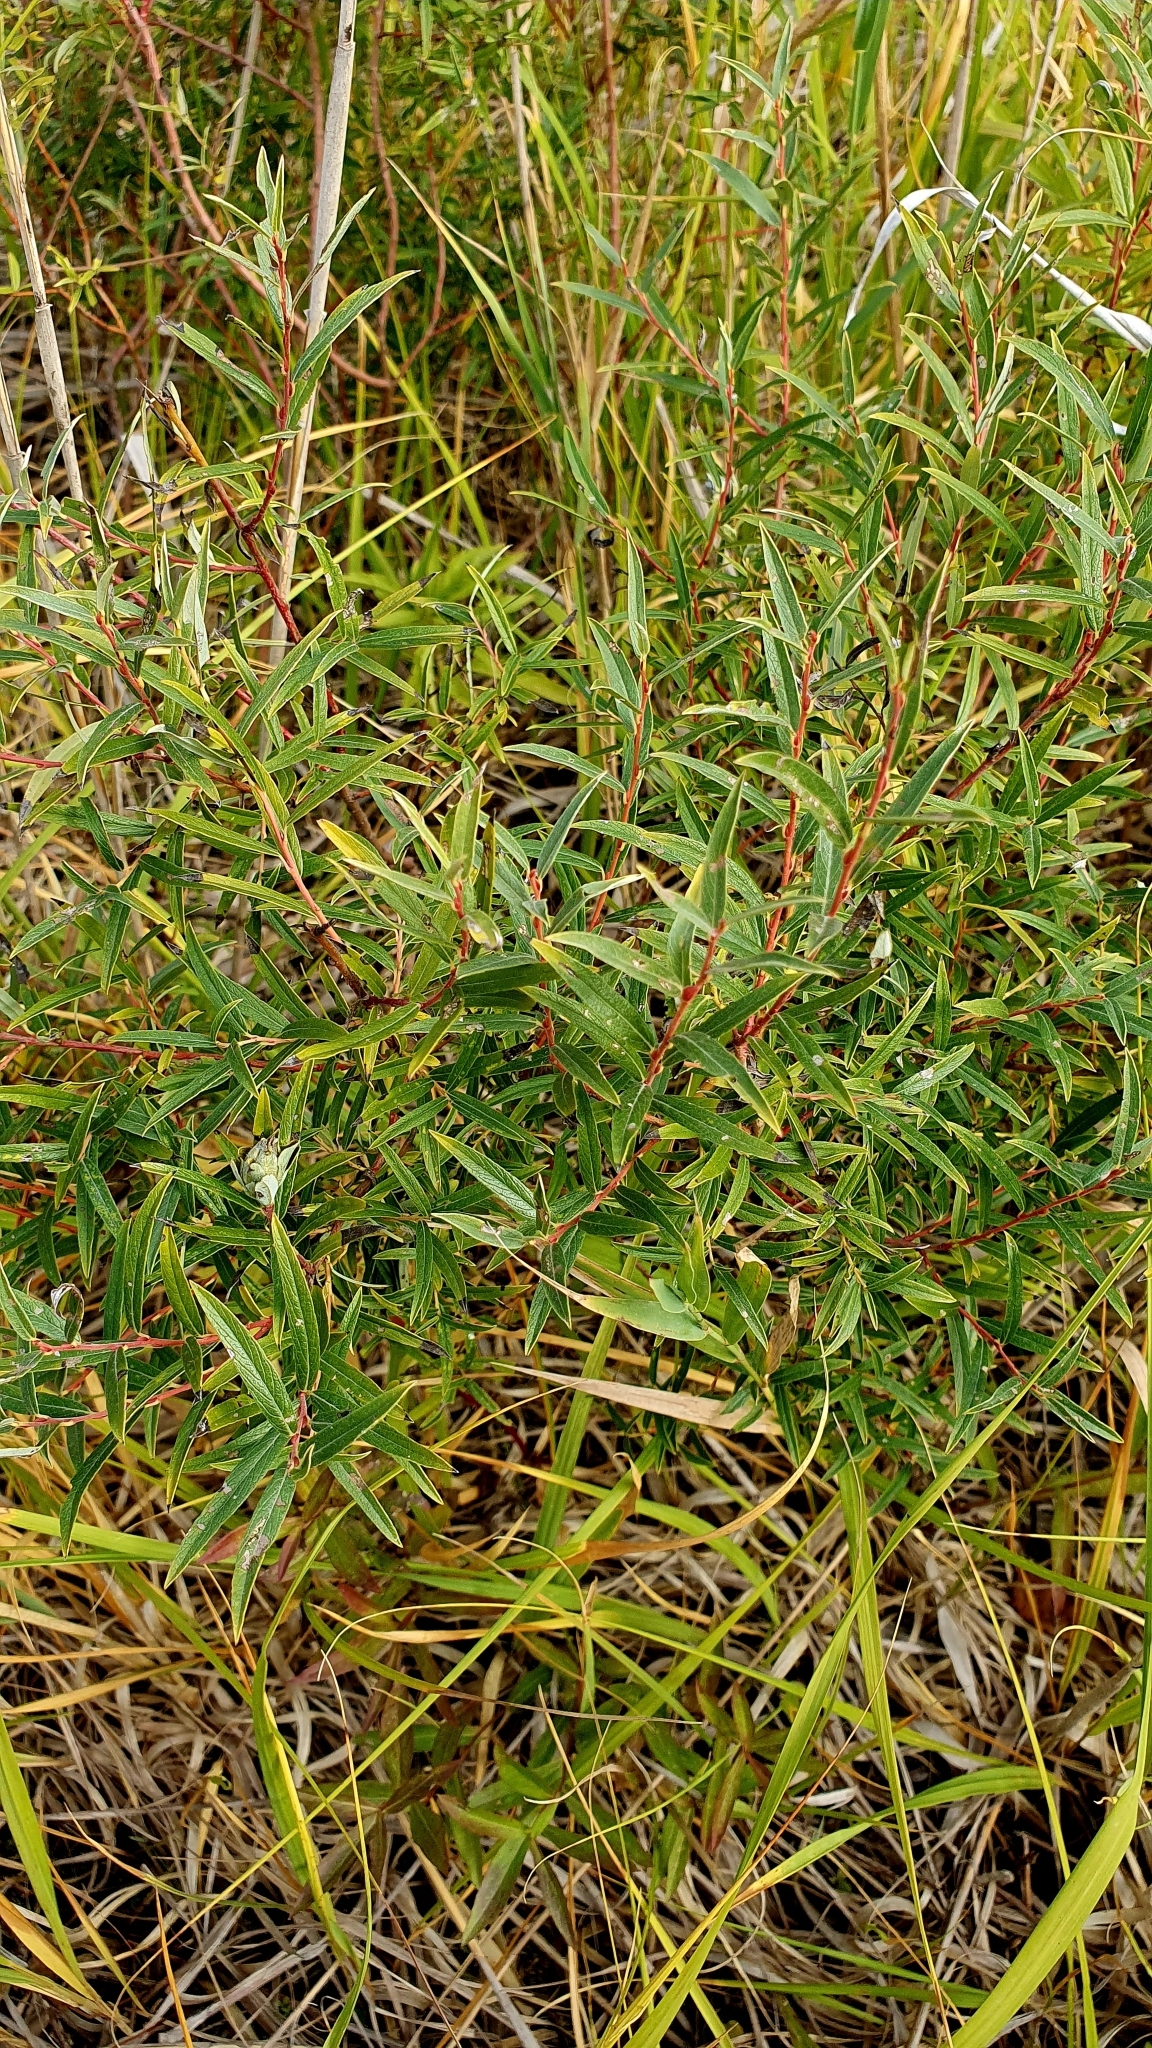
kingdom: Plantae
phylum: Tracheophyta
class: Magnoliopsida
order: Malpighiales
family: Salicaceae
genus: Salix
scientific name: Salix rosmarinifolia
